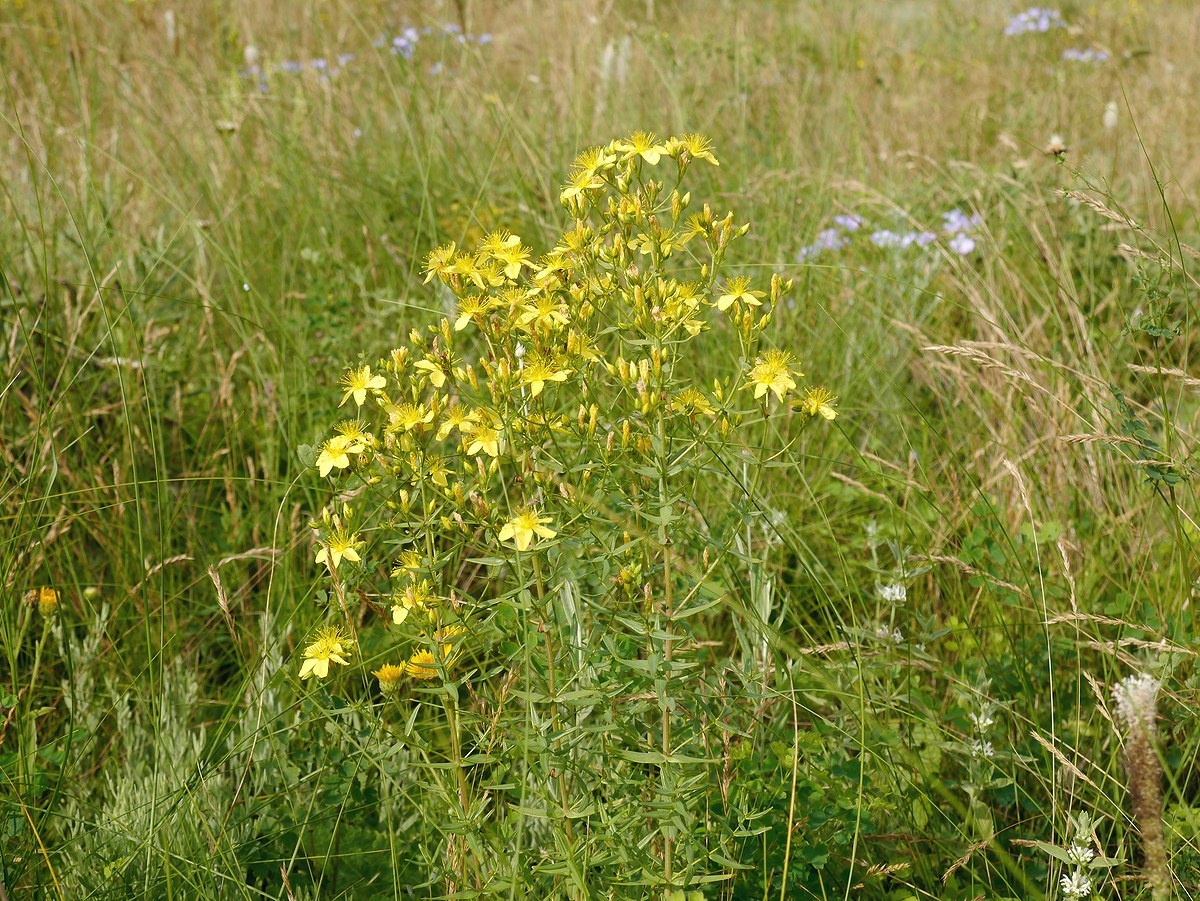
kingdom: Plantae
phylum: Tracheophyta
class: Magnoliopsida
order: Malpighiales
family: Hypericaceae
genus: Hypericum
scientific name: Hypericum elegans
